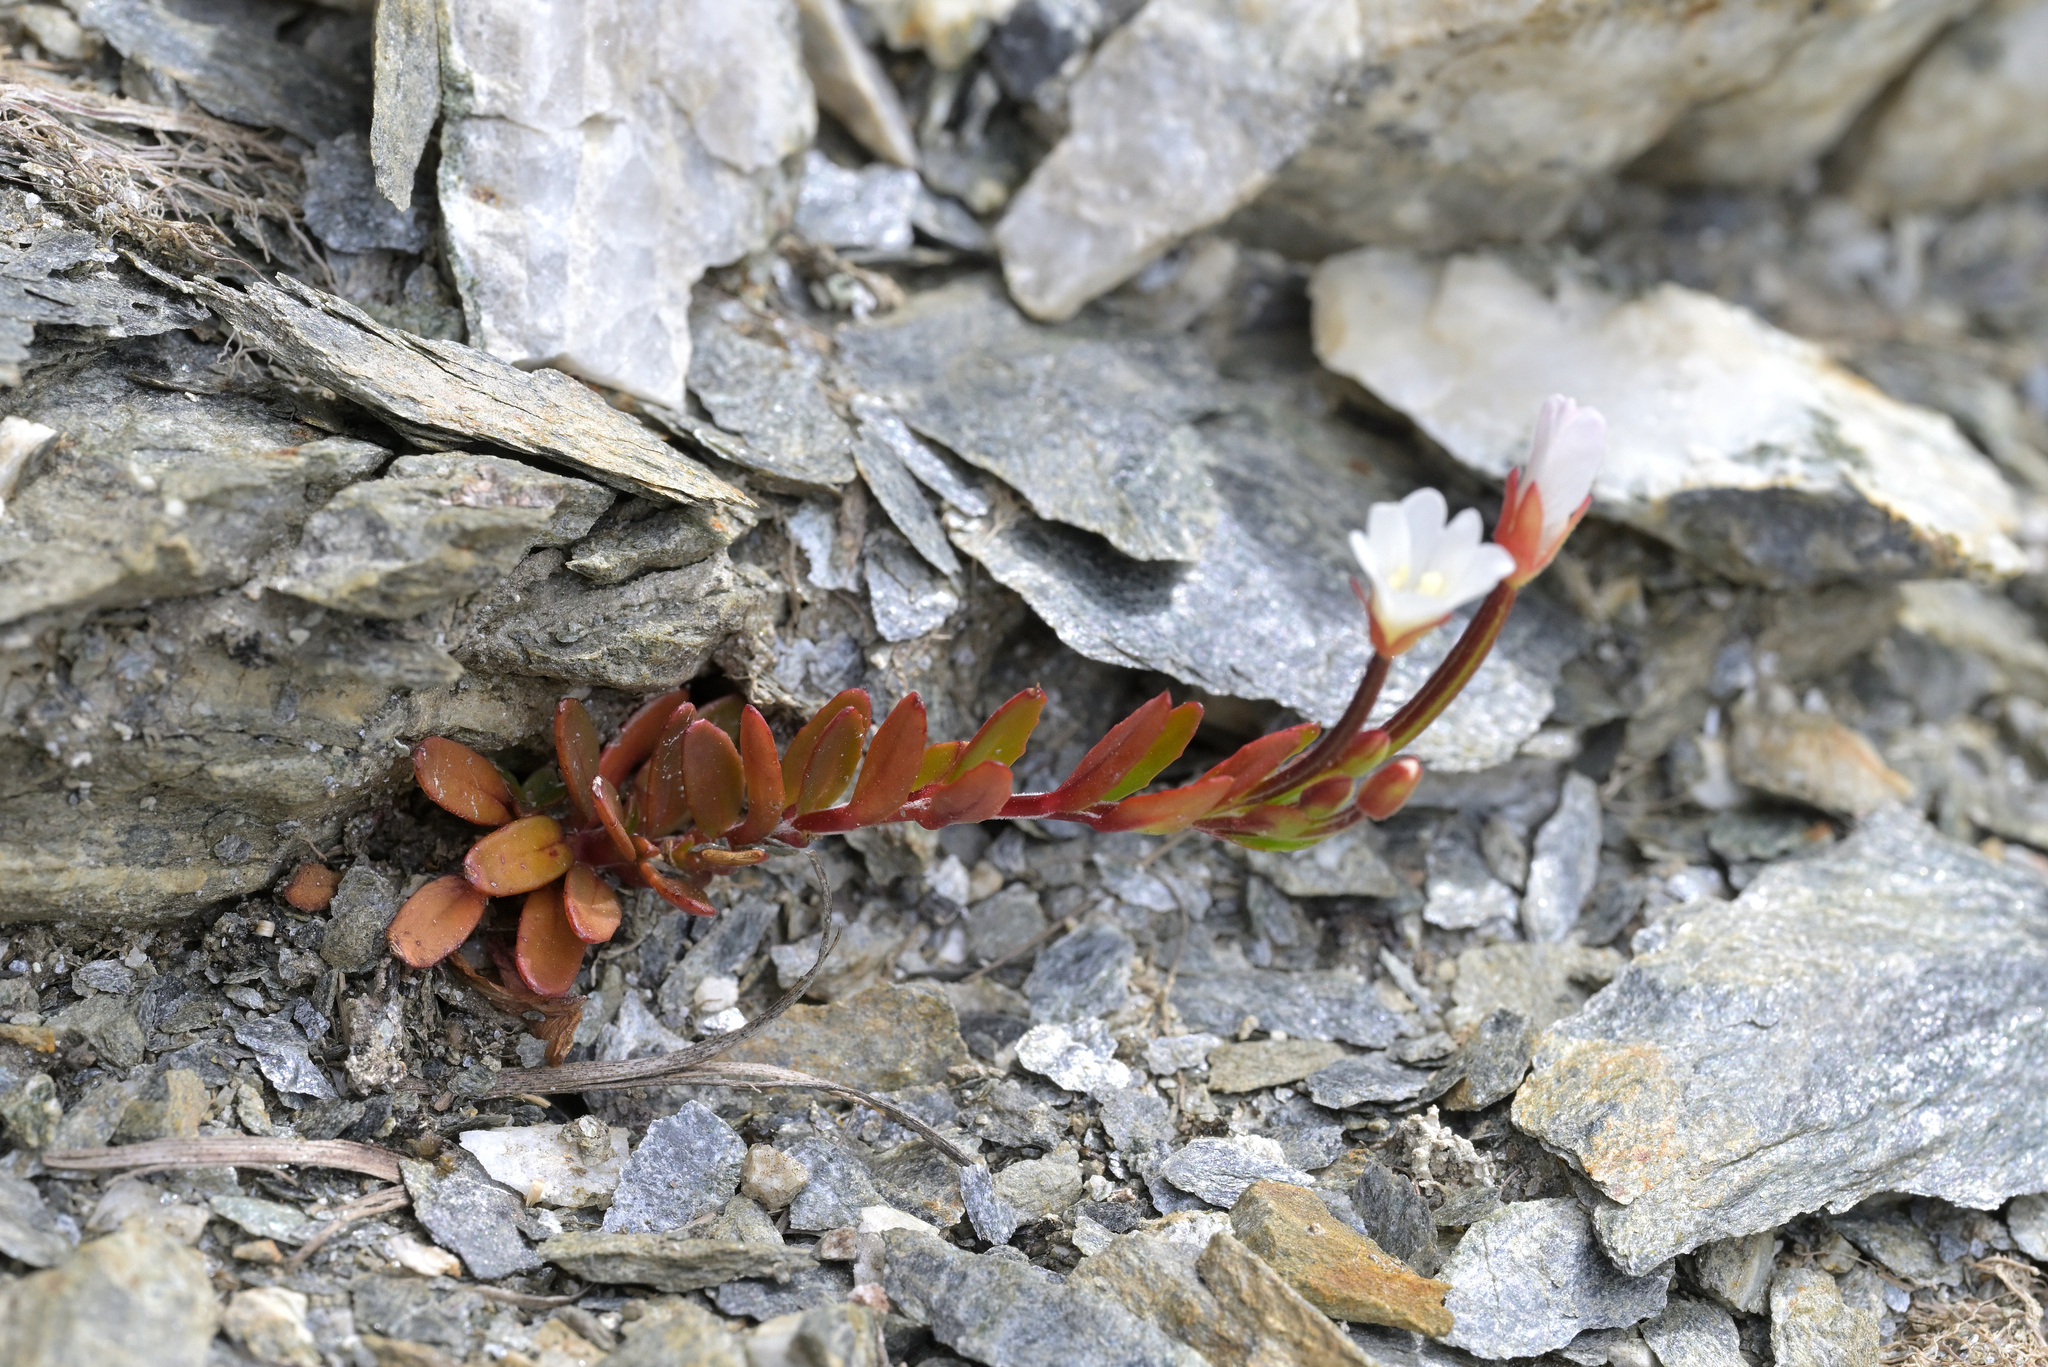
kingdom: Plantae
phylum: Tracheophyta
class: Magnoliopsida
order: Myrtales
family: Onagraceae
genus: Epilobium
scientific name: Epilobium hectorii
